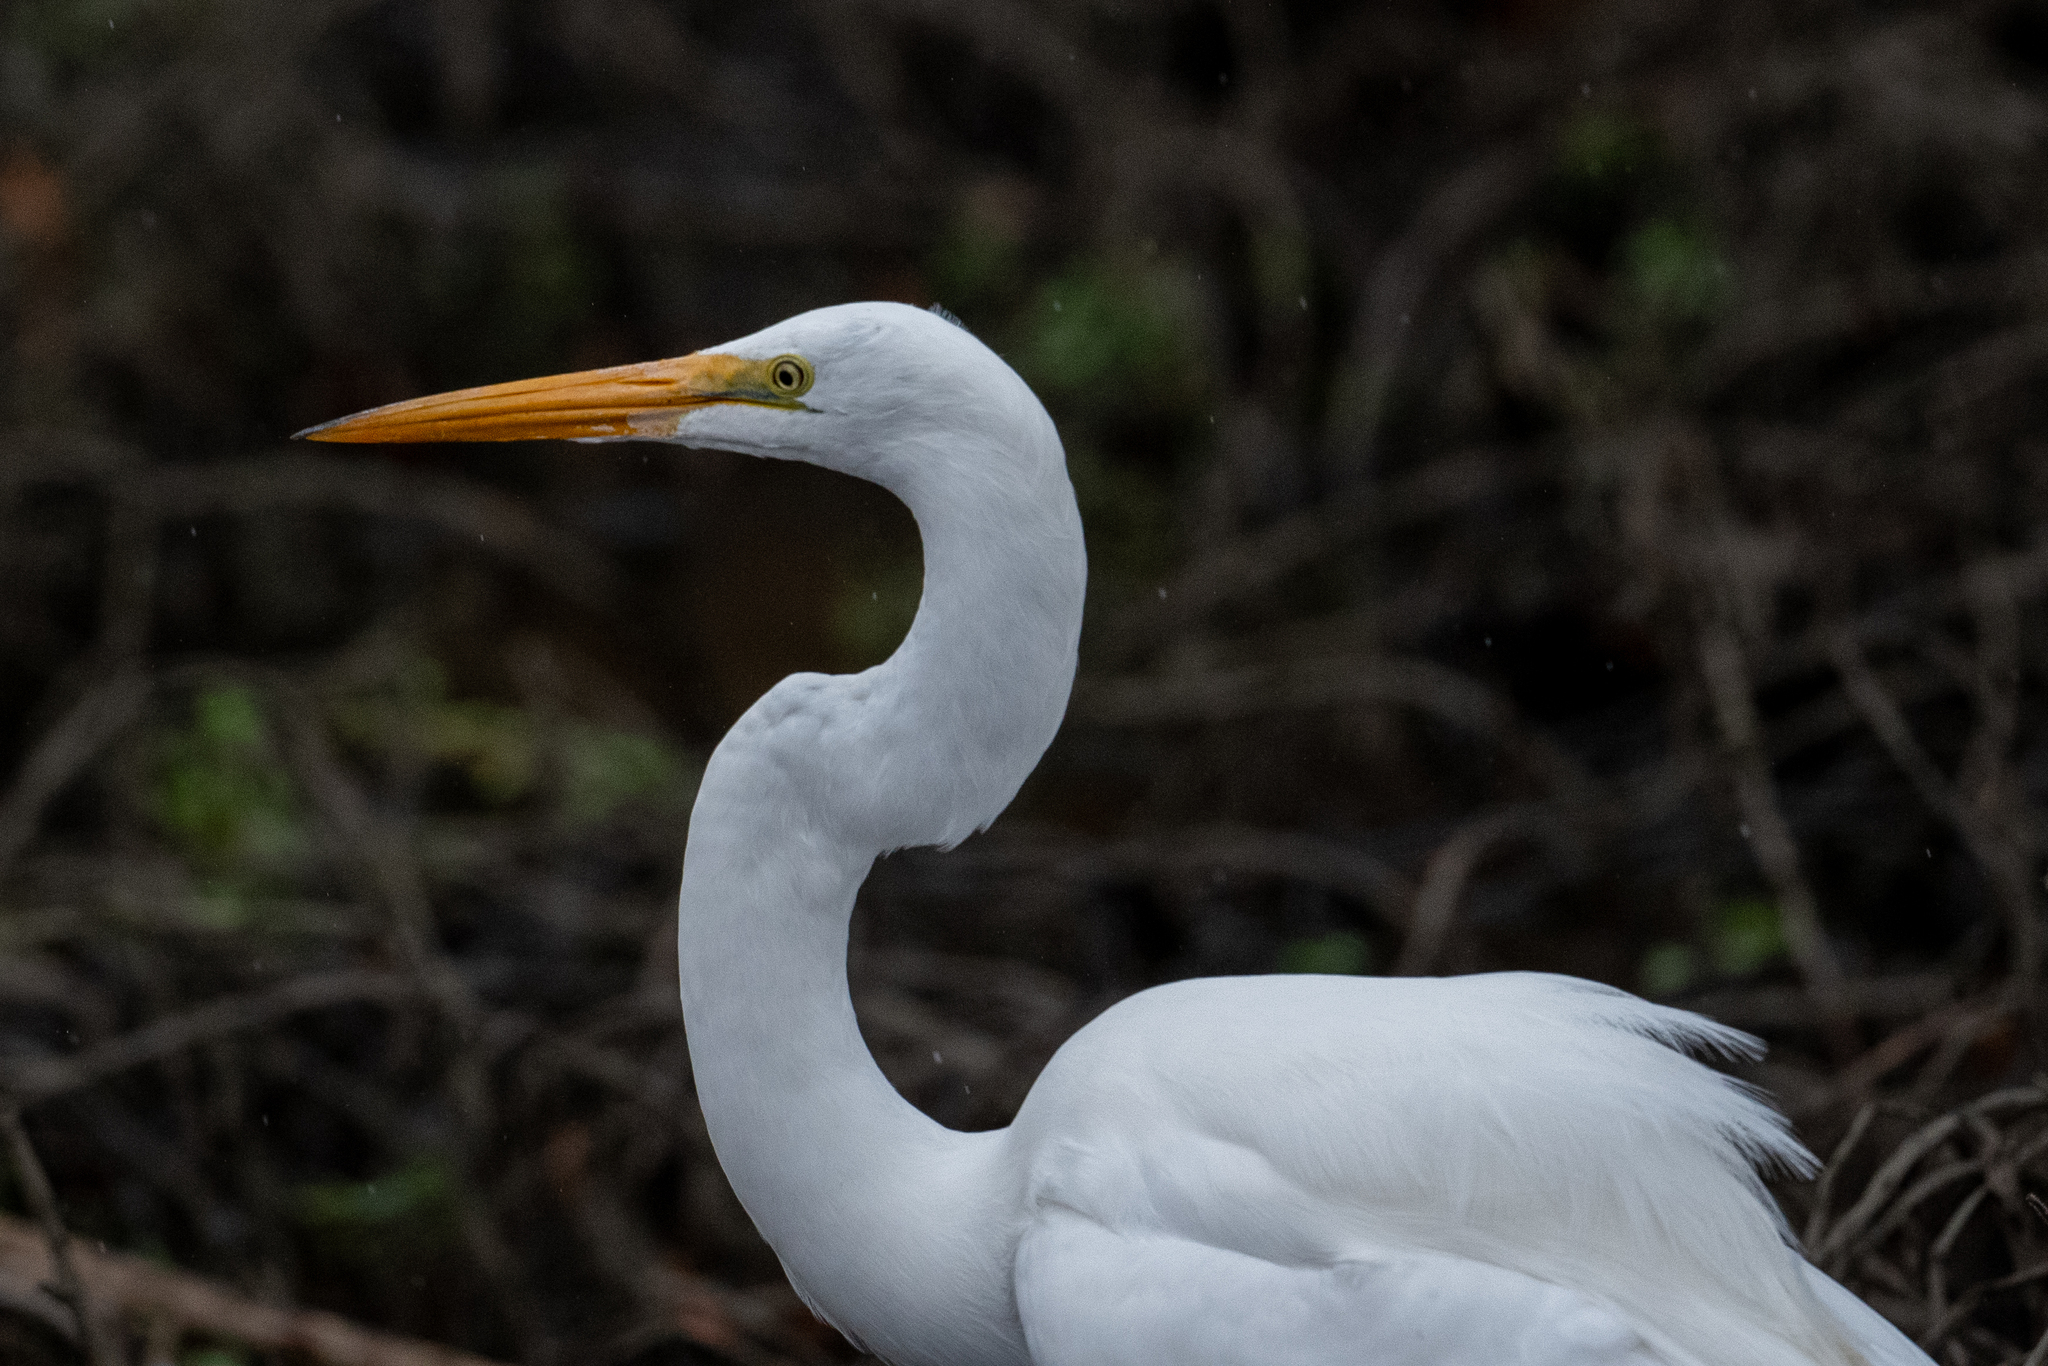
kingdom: Animalia
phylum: Chordata
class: Aves
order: Pelecaniformes
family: Ardeidae
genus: Ardea
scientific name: Ardea alba
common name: Great egret
